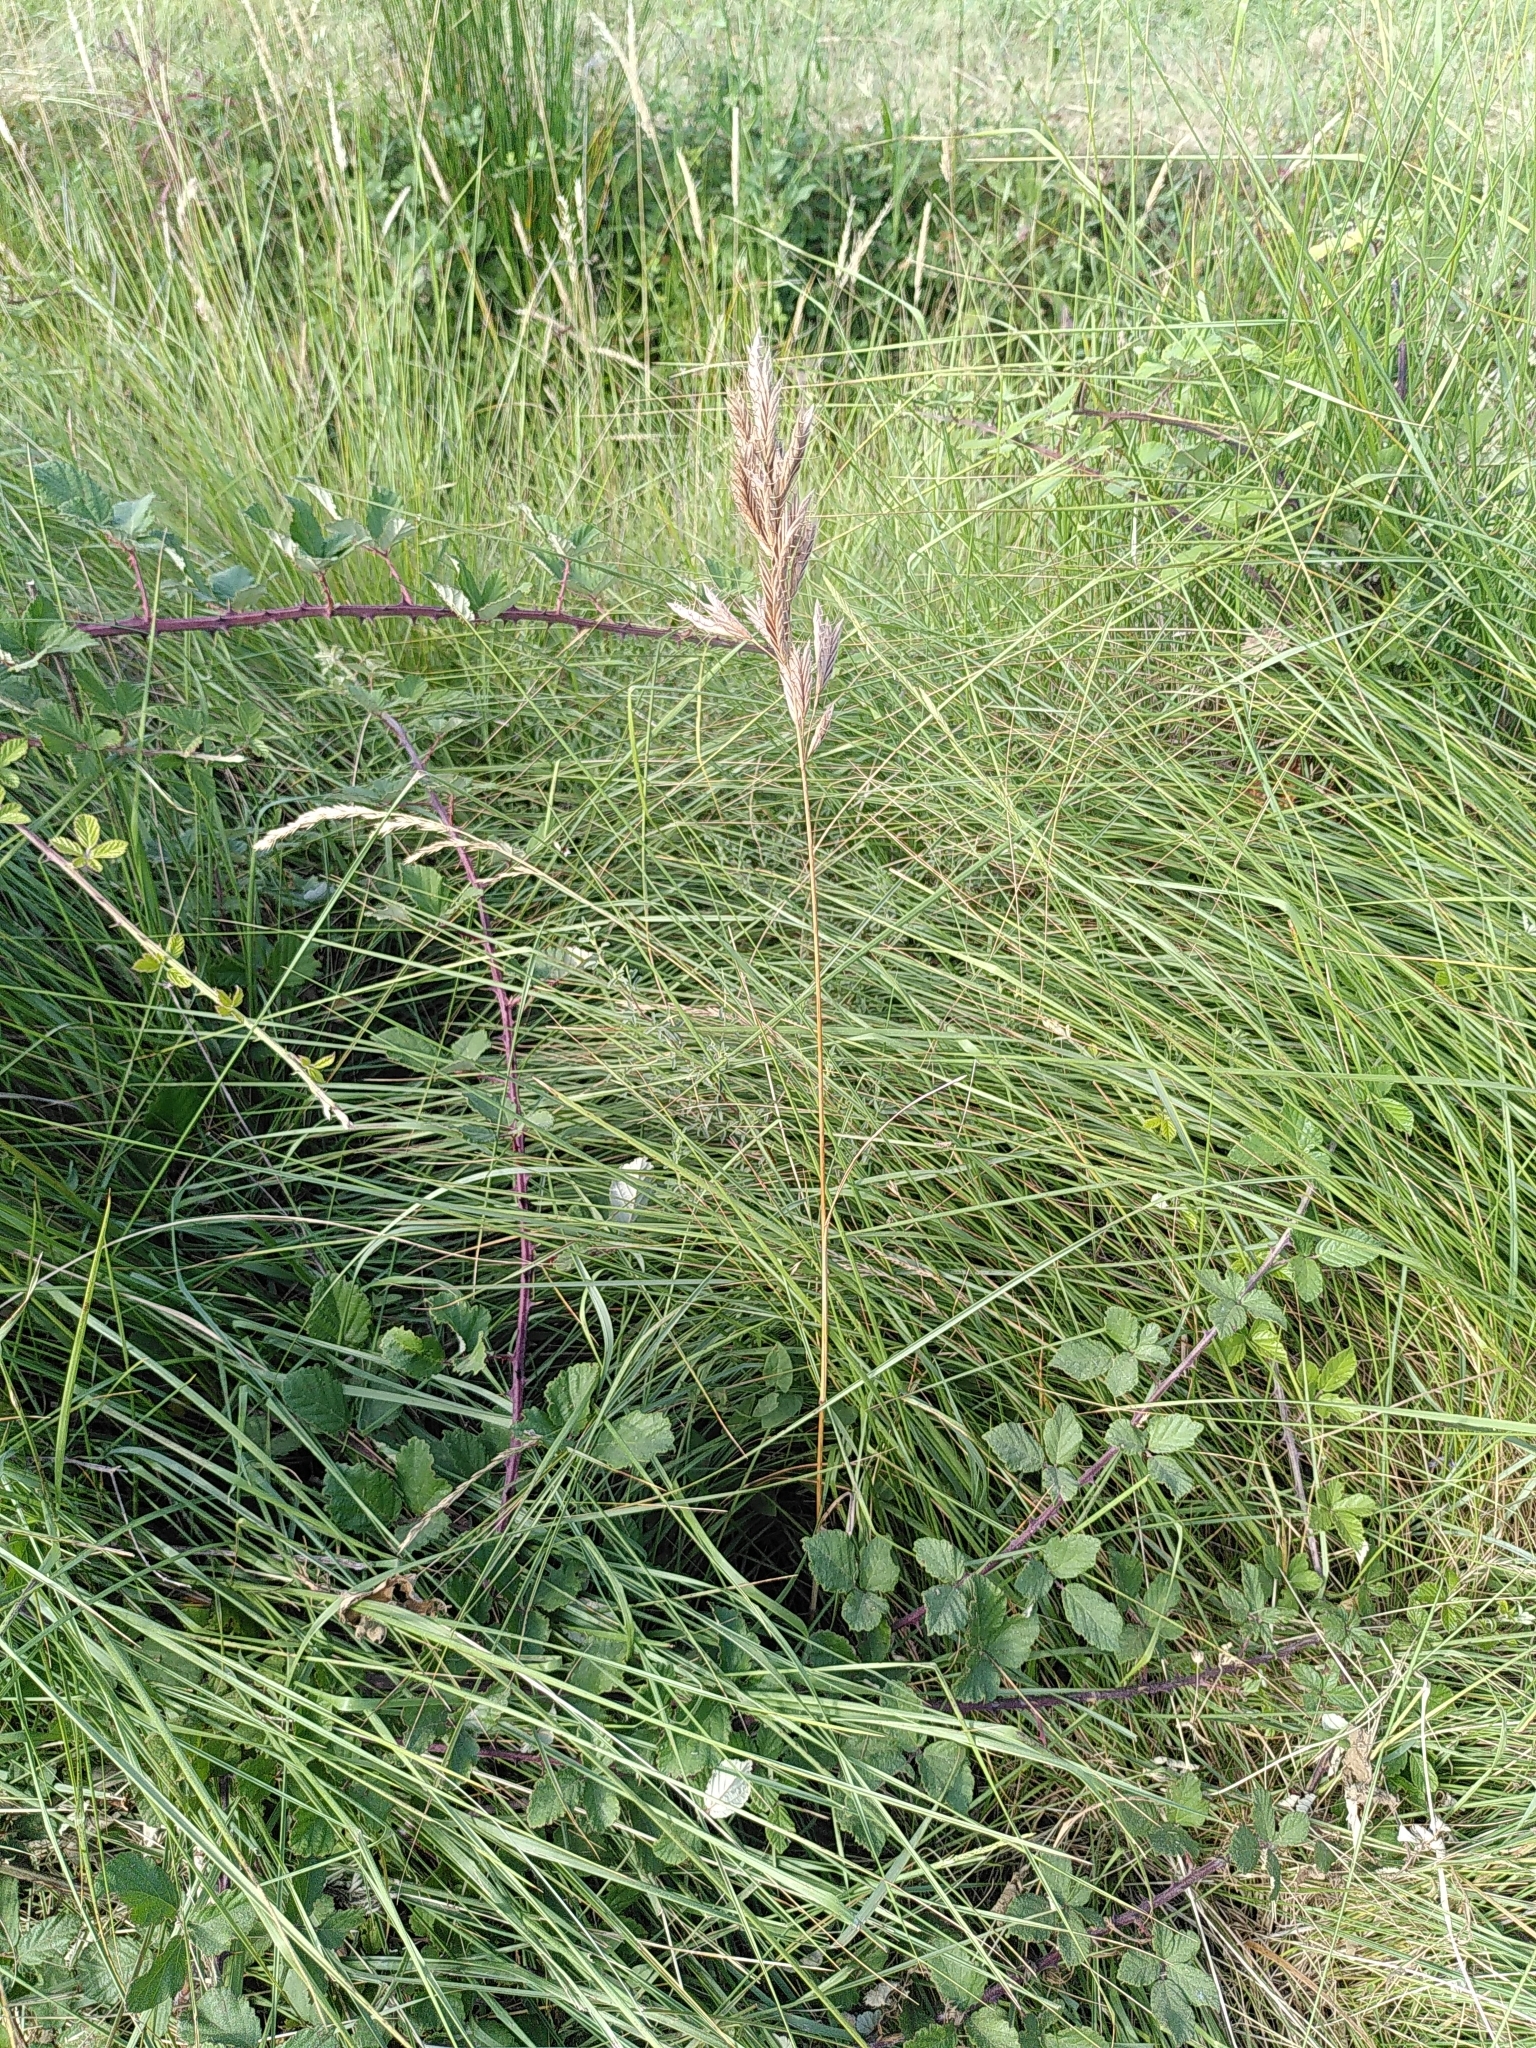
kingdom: Plantae
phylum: Tracheophyta
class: Liliopsida
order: Poales
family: Poaceae
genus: Bromus
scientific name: Bromus lanceolatus
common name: Mediterranean brome
